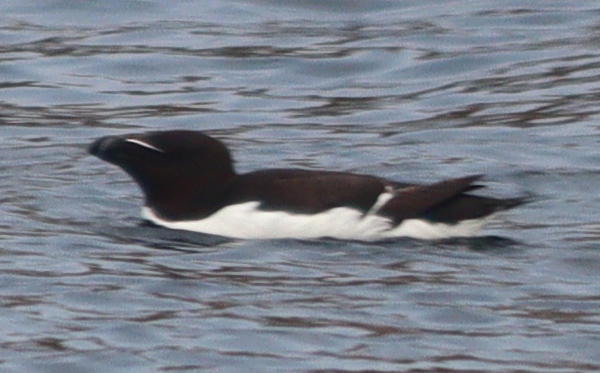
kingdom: Animalia
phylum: Chordata
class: Aves
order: Charadriiformes
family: Alcidae
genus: Alca
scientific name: Alca torda
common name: Razorbill
